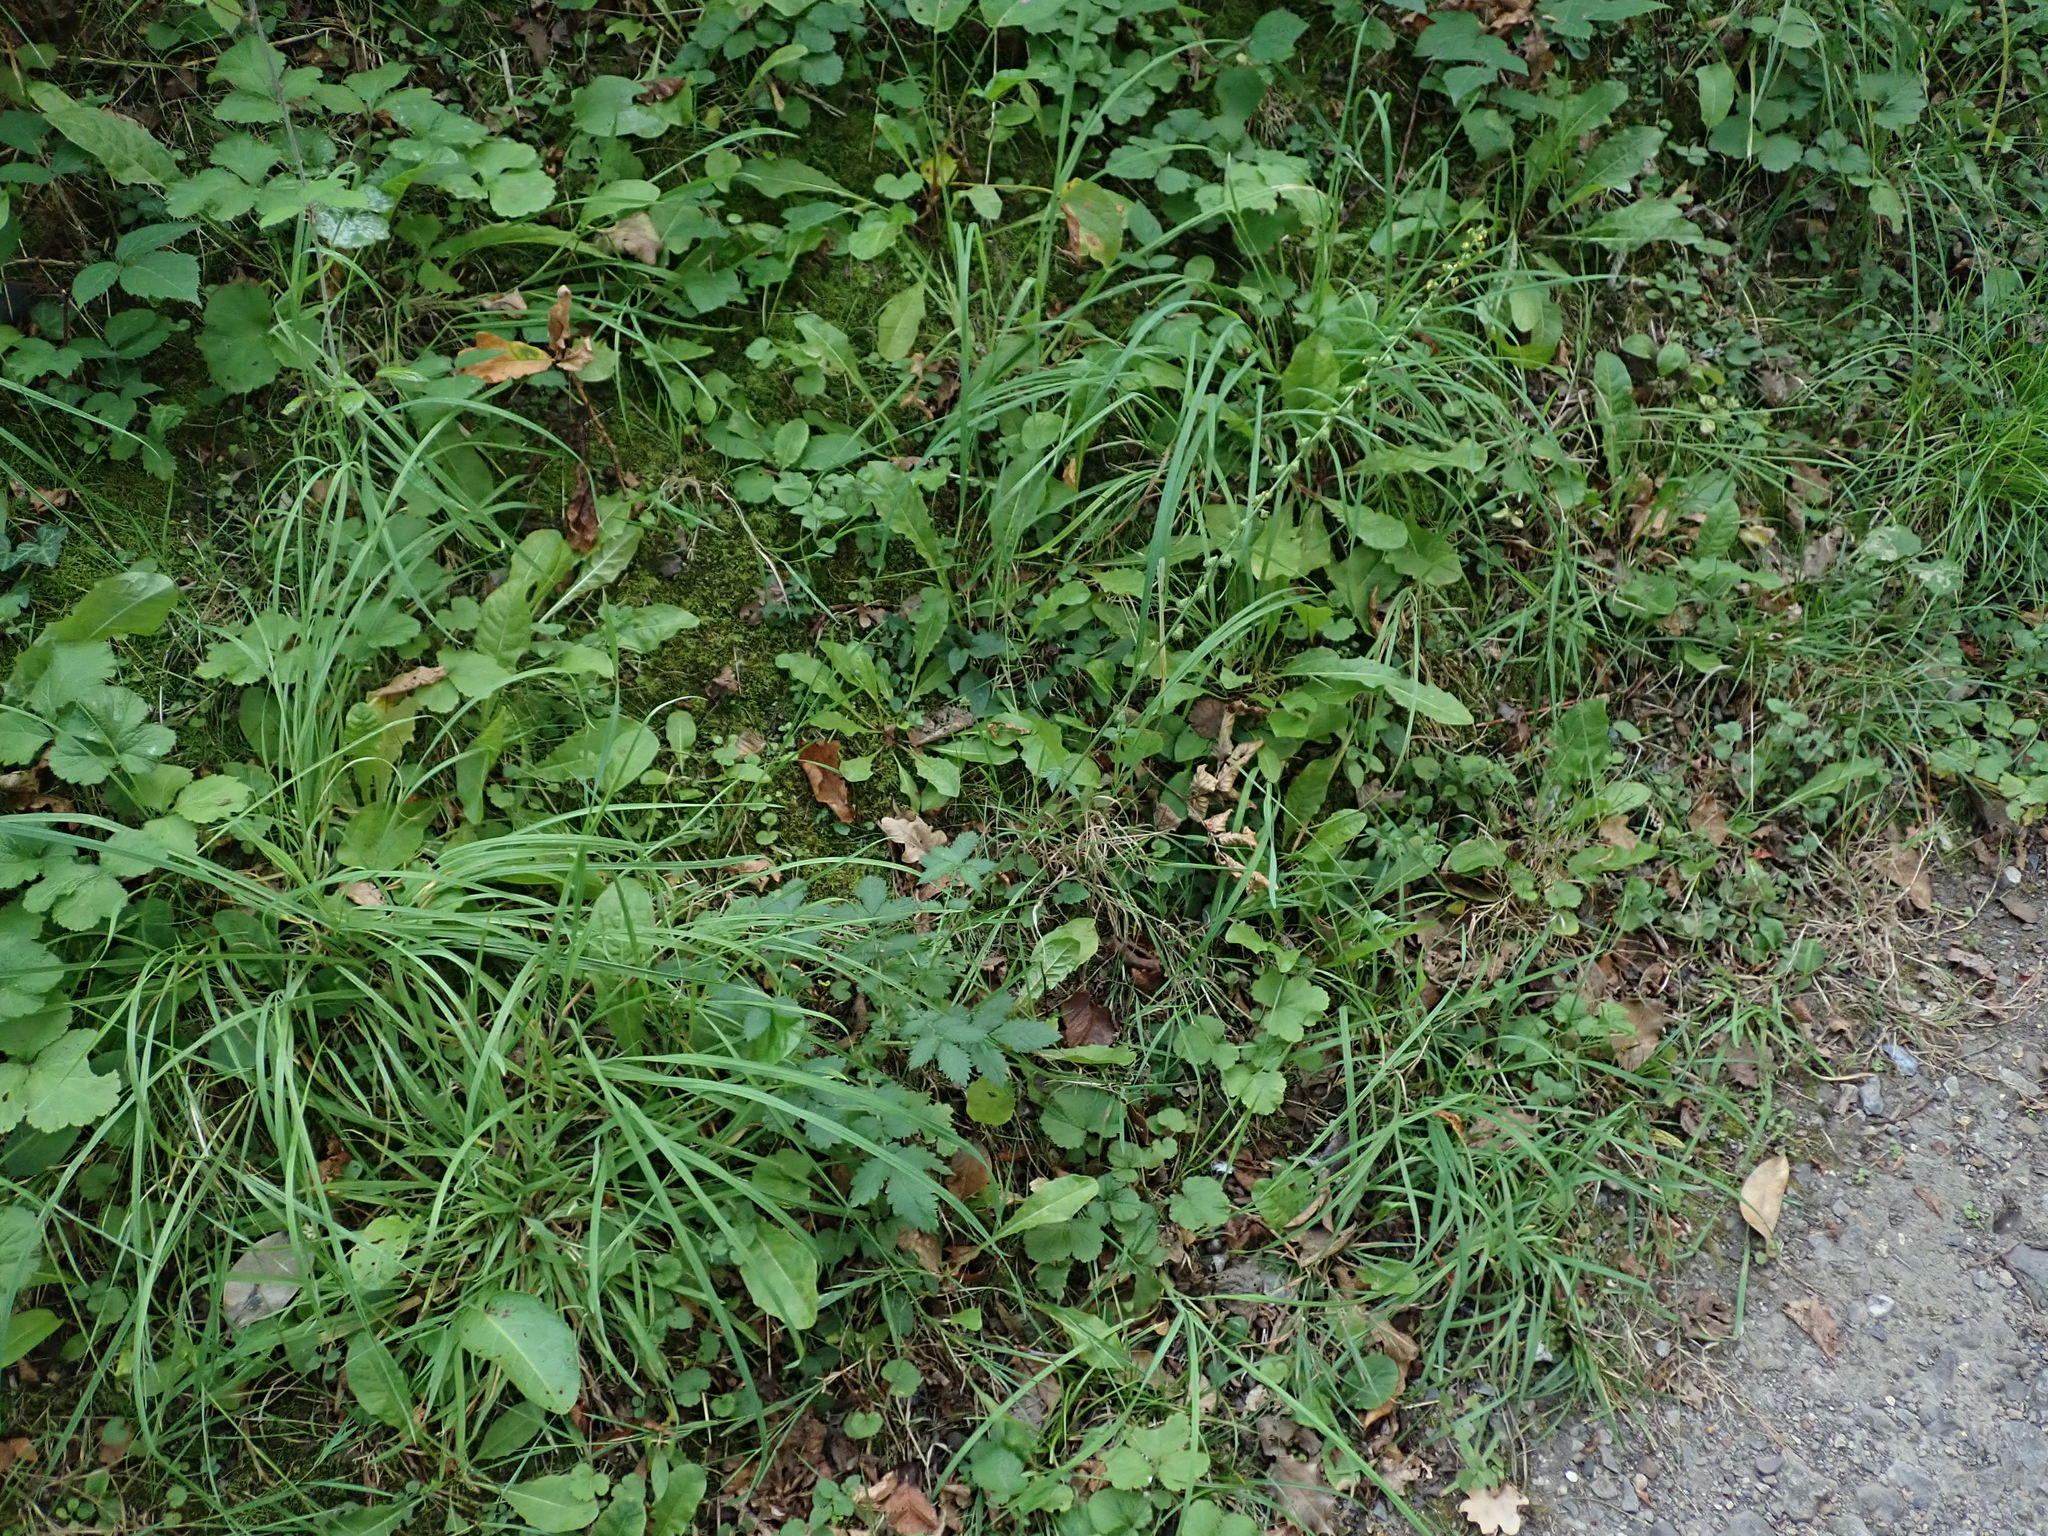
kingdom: Plantae
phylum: Tracheophyta
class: Magnoliopsida
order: Rosales
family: Rosaceae
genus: Agrimonia
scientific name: Agrimonia eupatoria
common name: Agrimony
